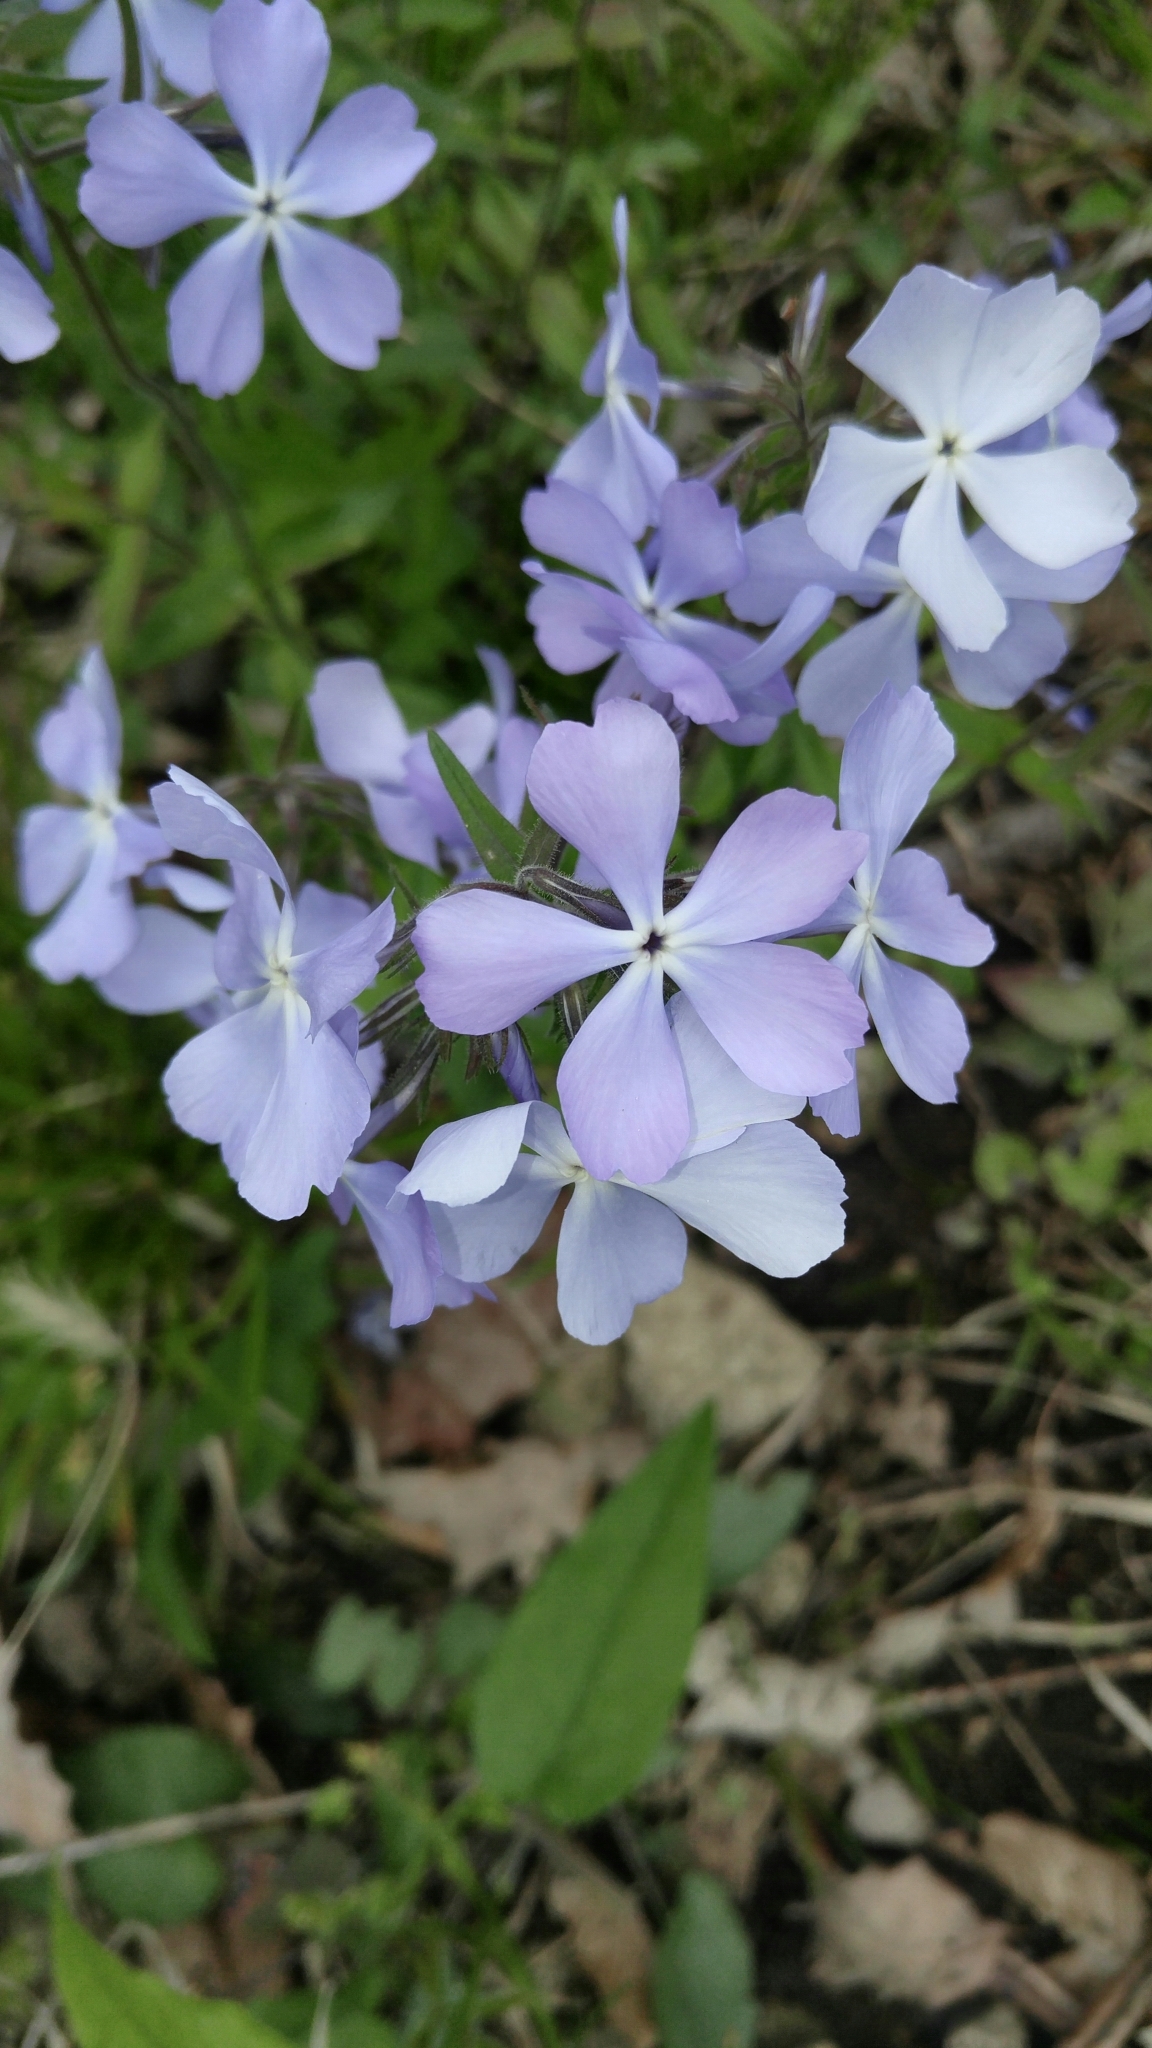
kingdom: Plantae
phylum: Tracheophyta
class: Magnoliopsida
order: Ericales
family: Polemoniaceae
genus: Phlox
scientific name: Phlox divaricata
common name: Blue phlox
